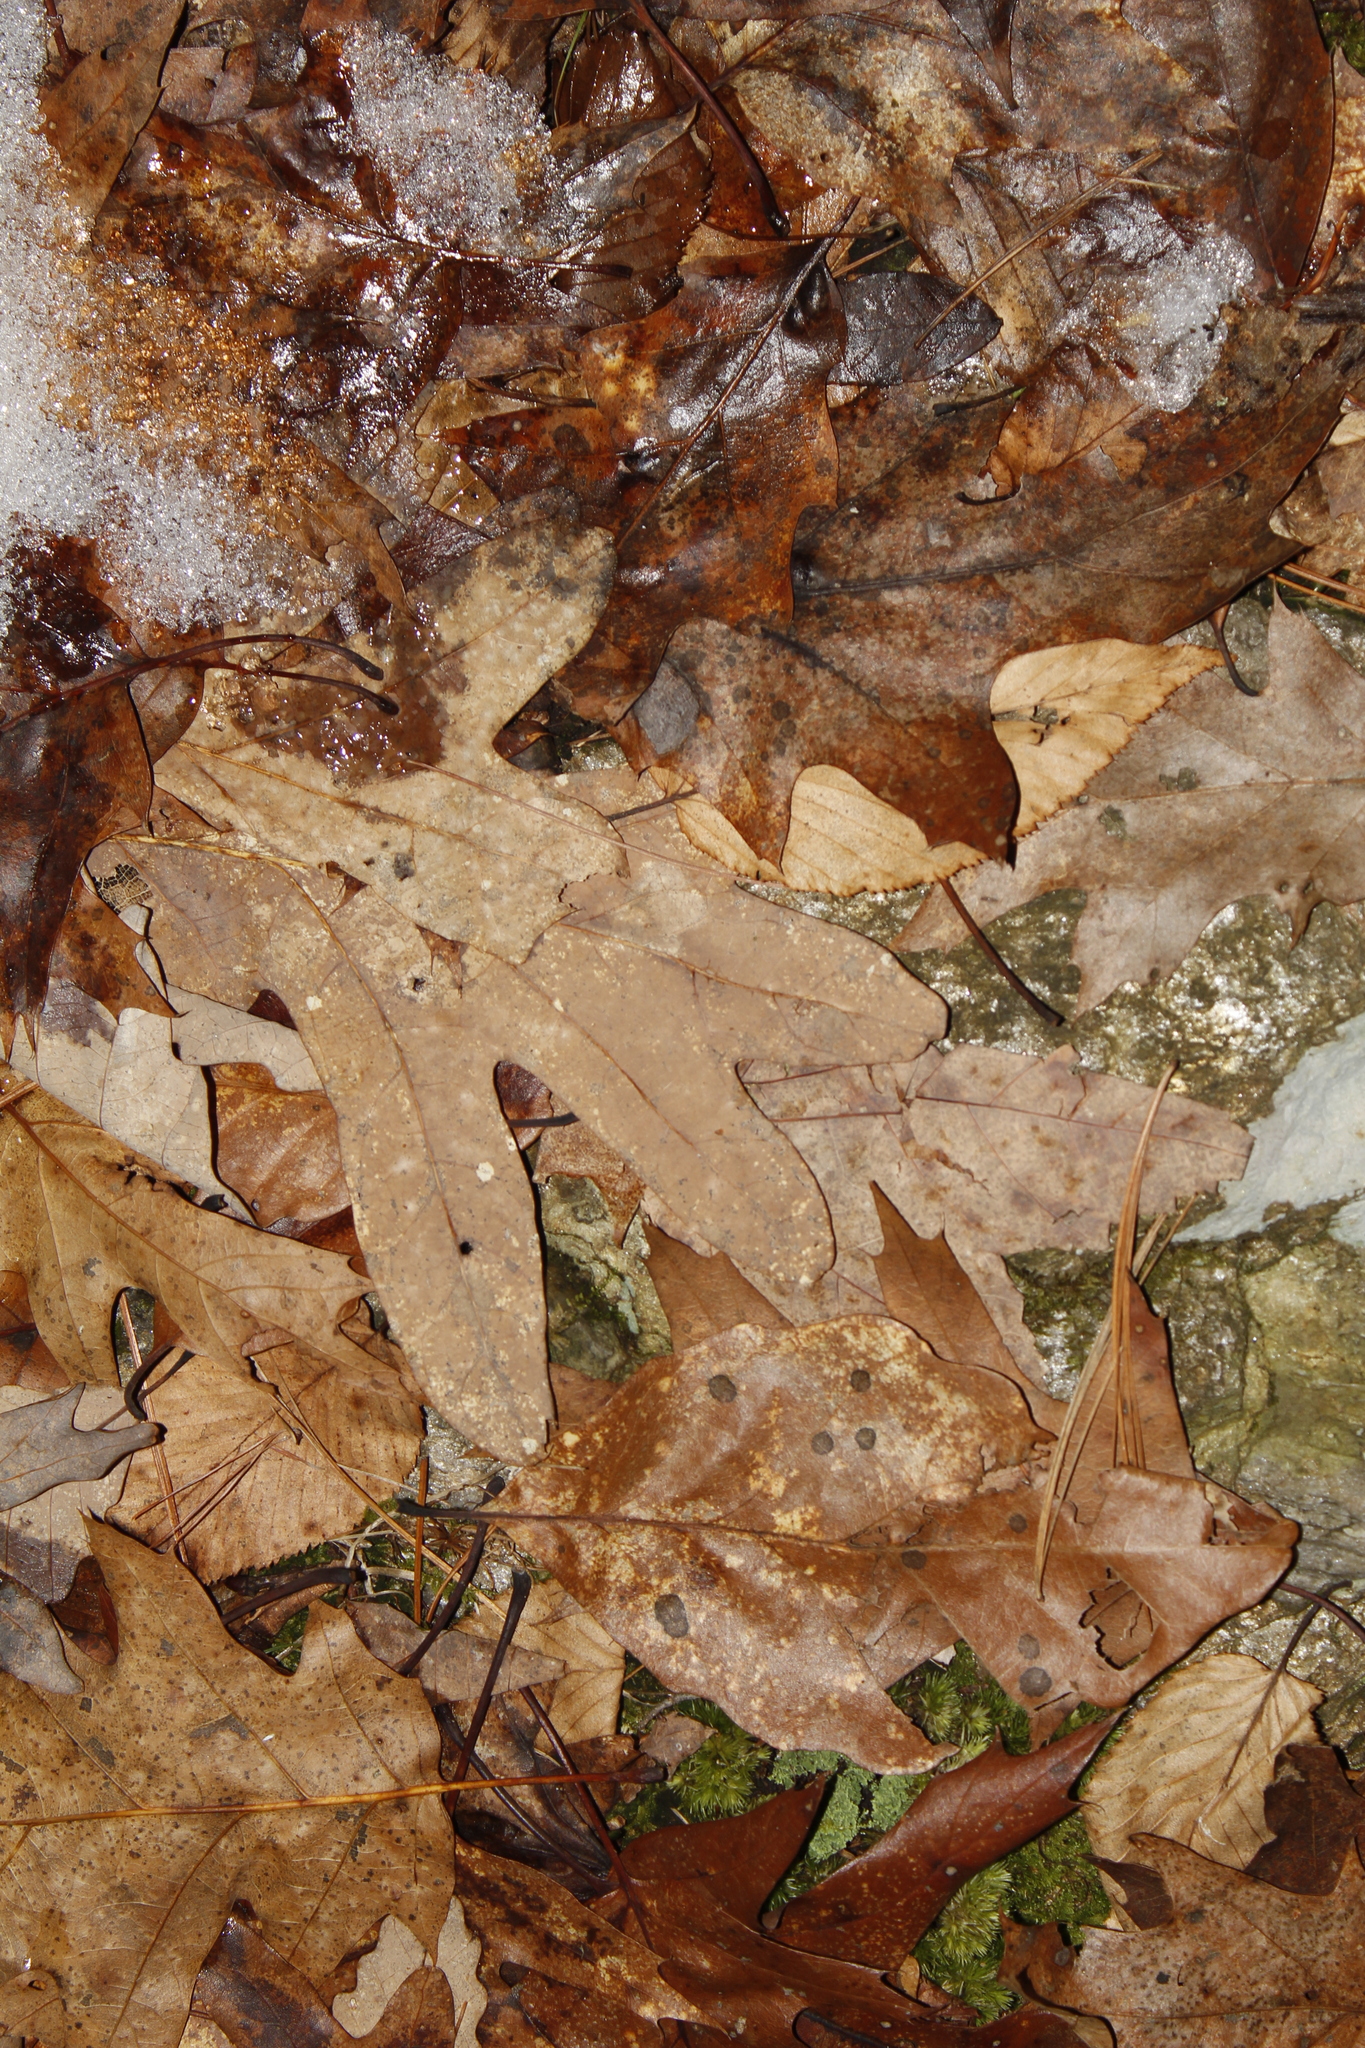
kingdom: Plantae
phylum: Tracheophyta
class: Magnoliopsida
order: Fagales
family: Fagaceae
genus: Quercus
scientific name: Quercus alba
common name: White oak
